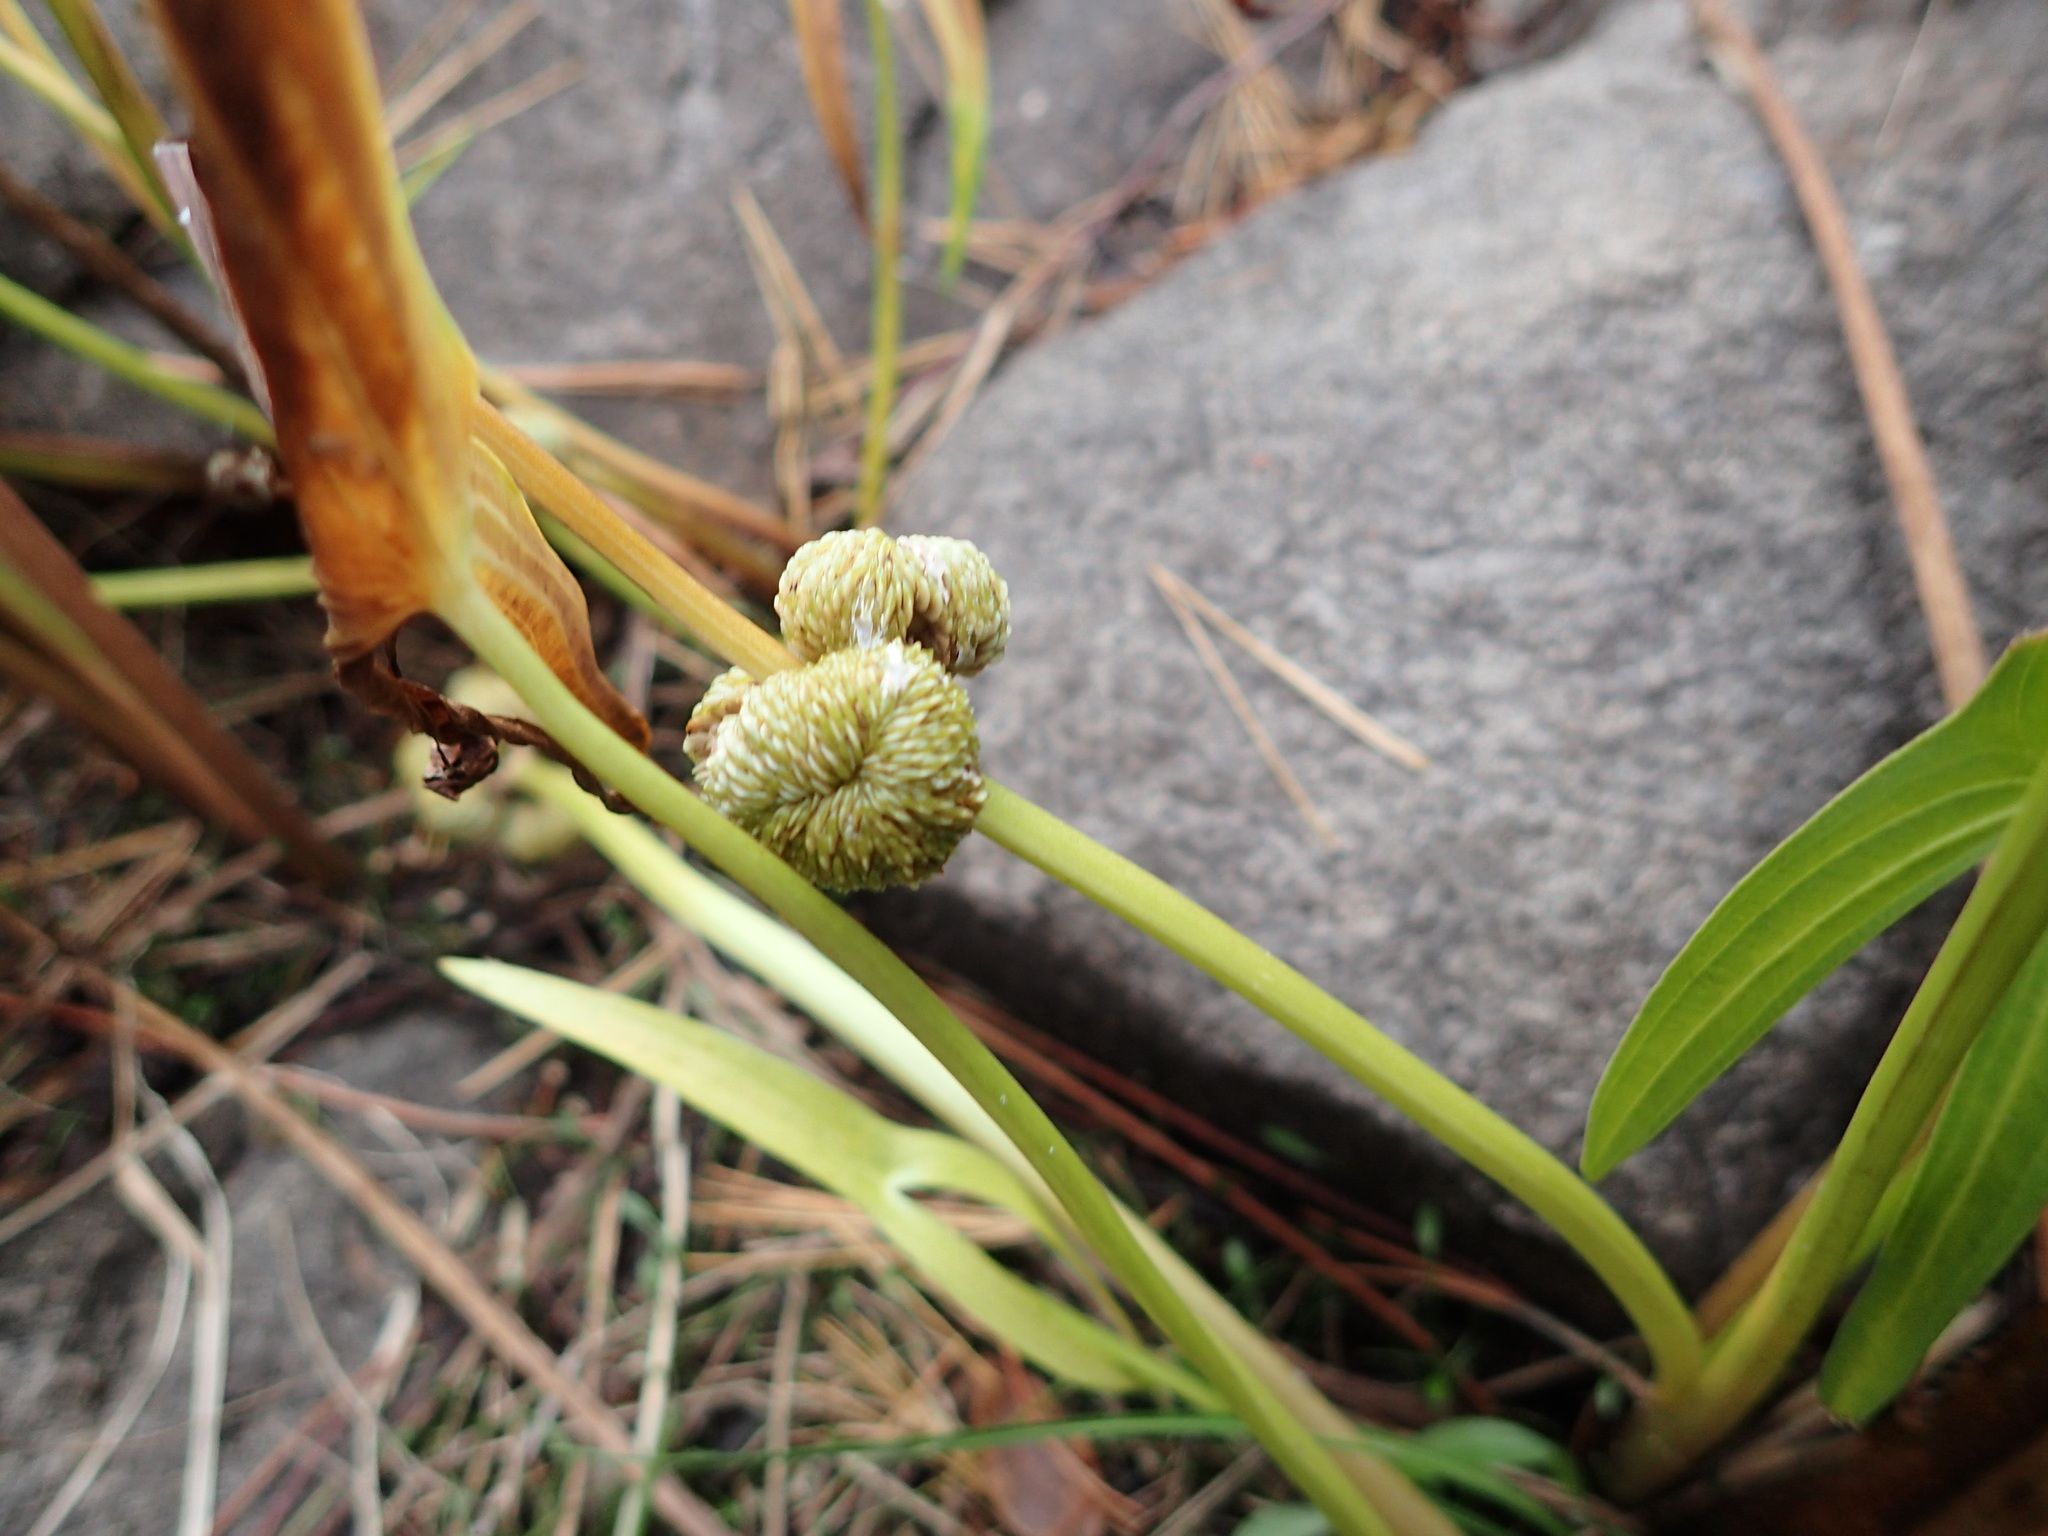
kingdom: Plantae
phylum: Tracheophyta
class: Liliopsida
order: Alismatales
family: Alismataceae
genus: Sagittaria
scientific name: Sagittaria latifolia
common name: Duck-potato
